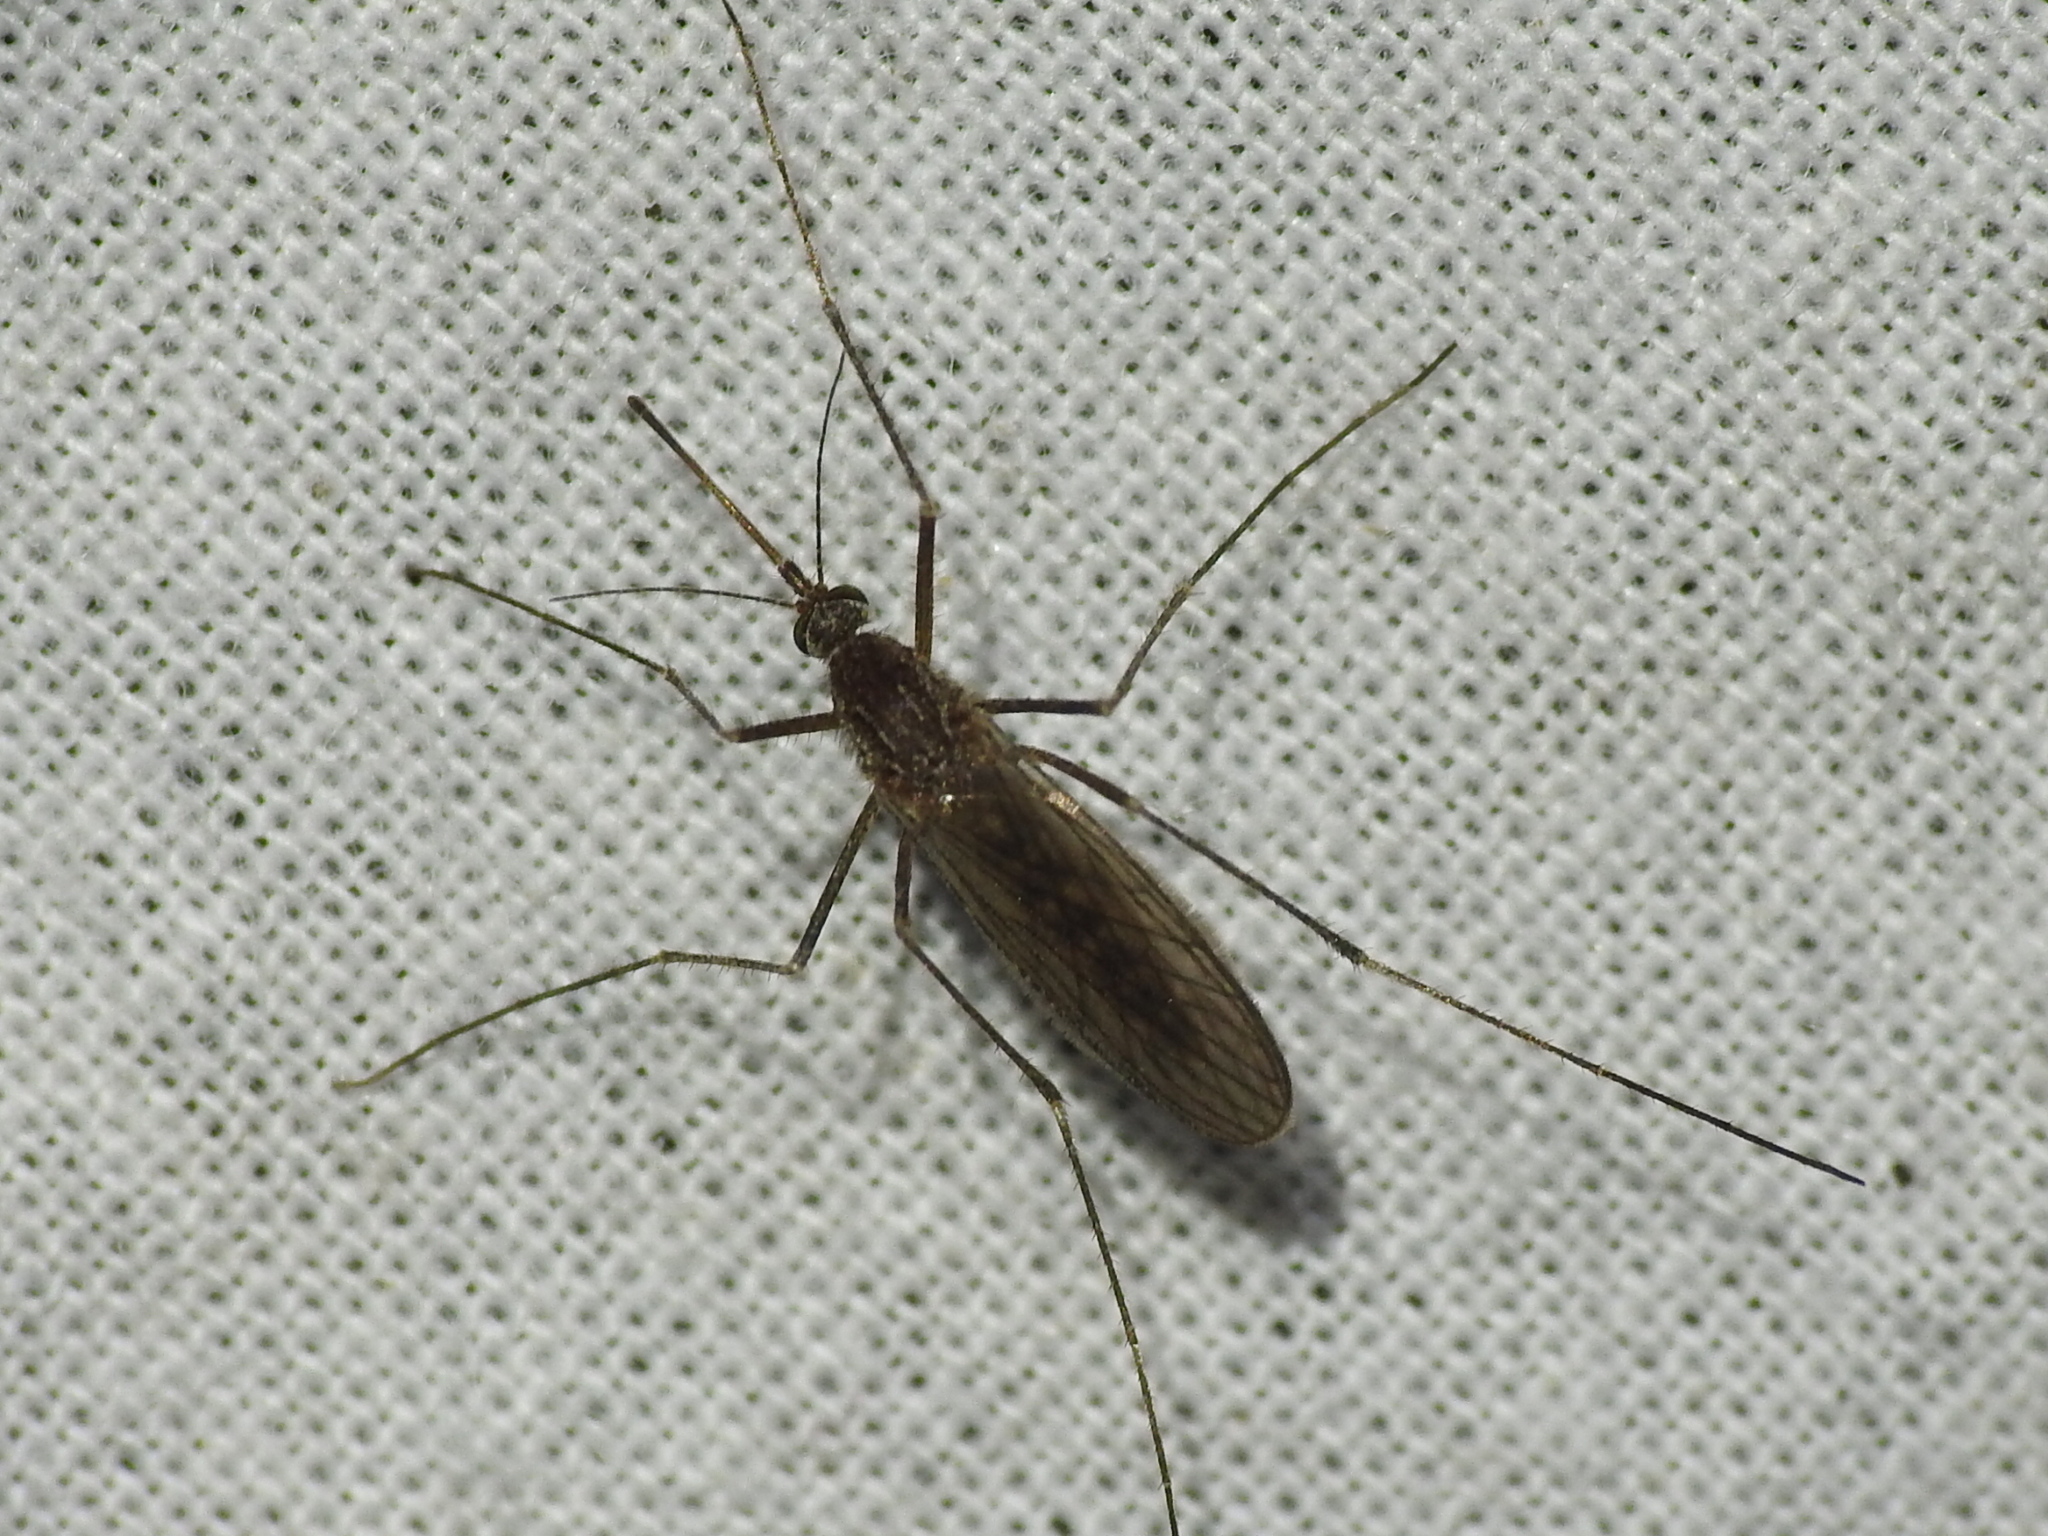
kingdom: Animalia
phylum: Arthropoda
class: Insecta
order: Diptera
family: Culicidae
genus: Culiseta
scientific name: Culiseta inornata
